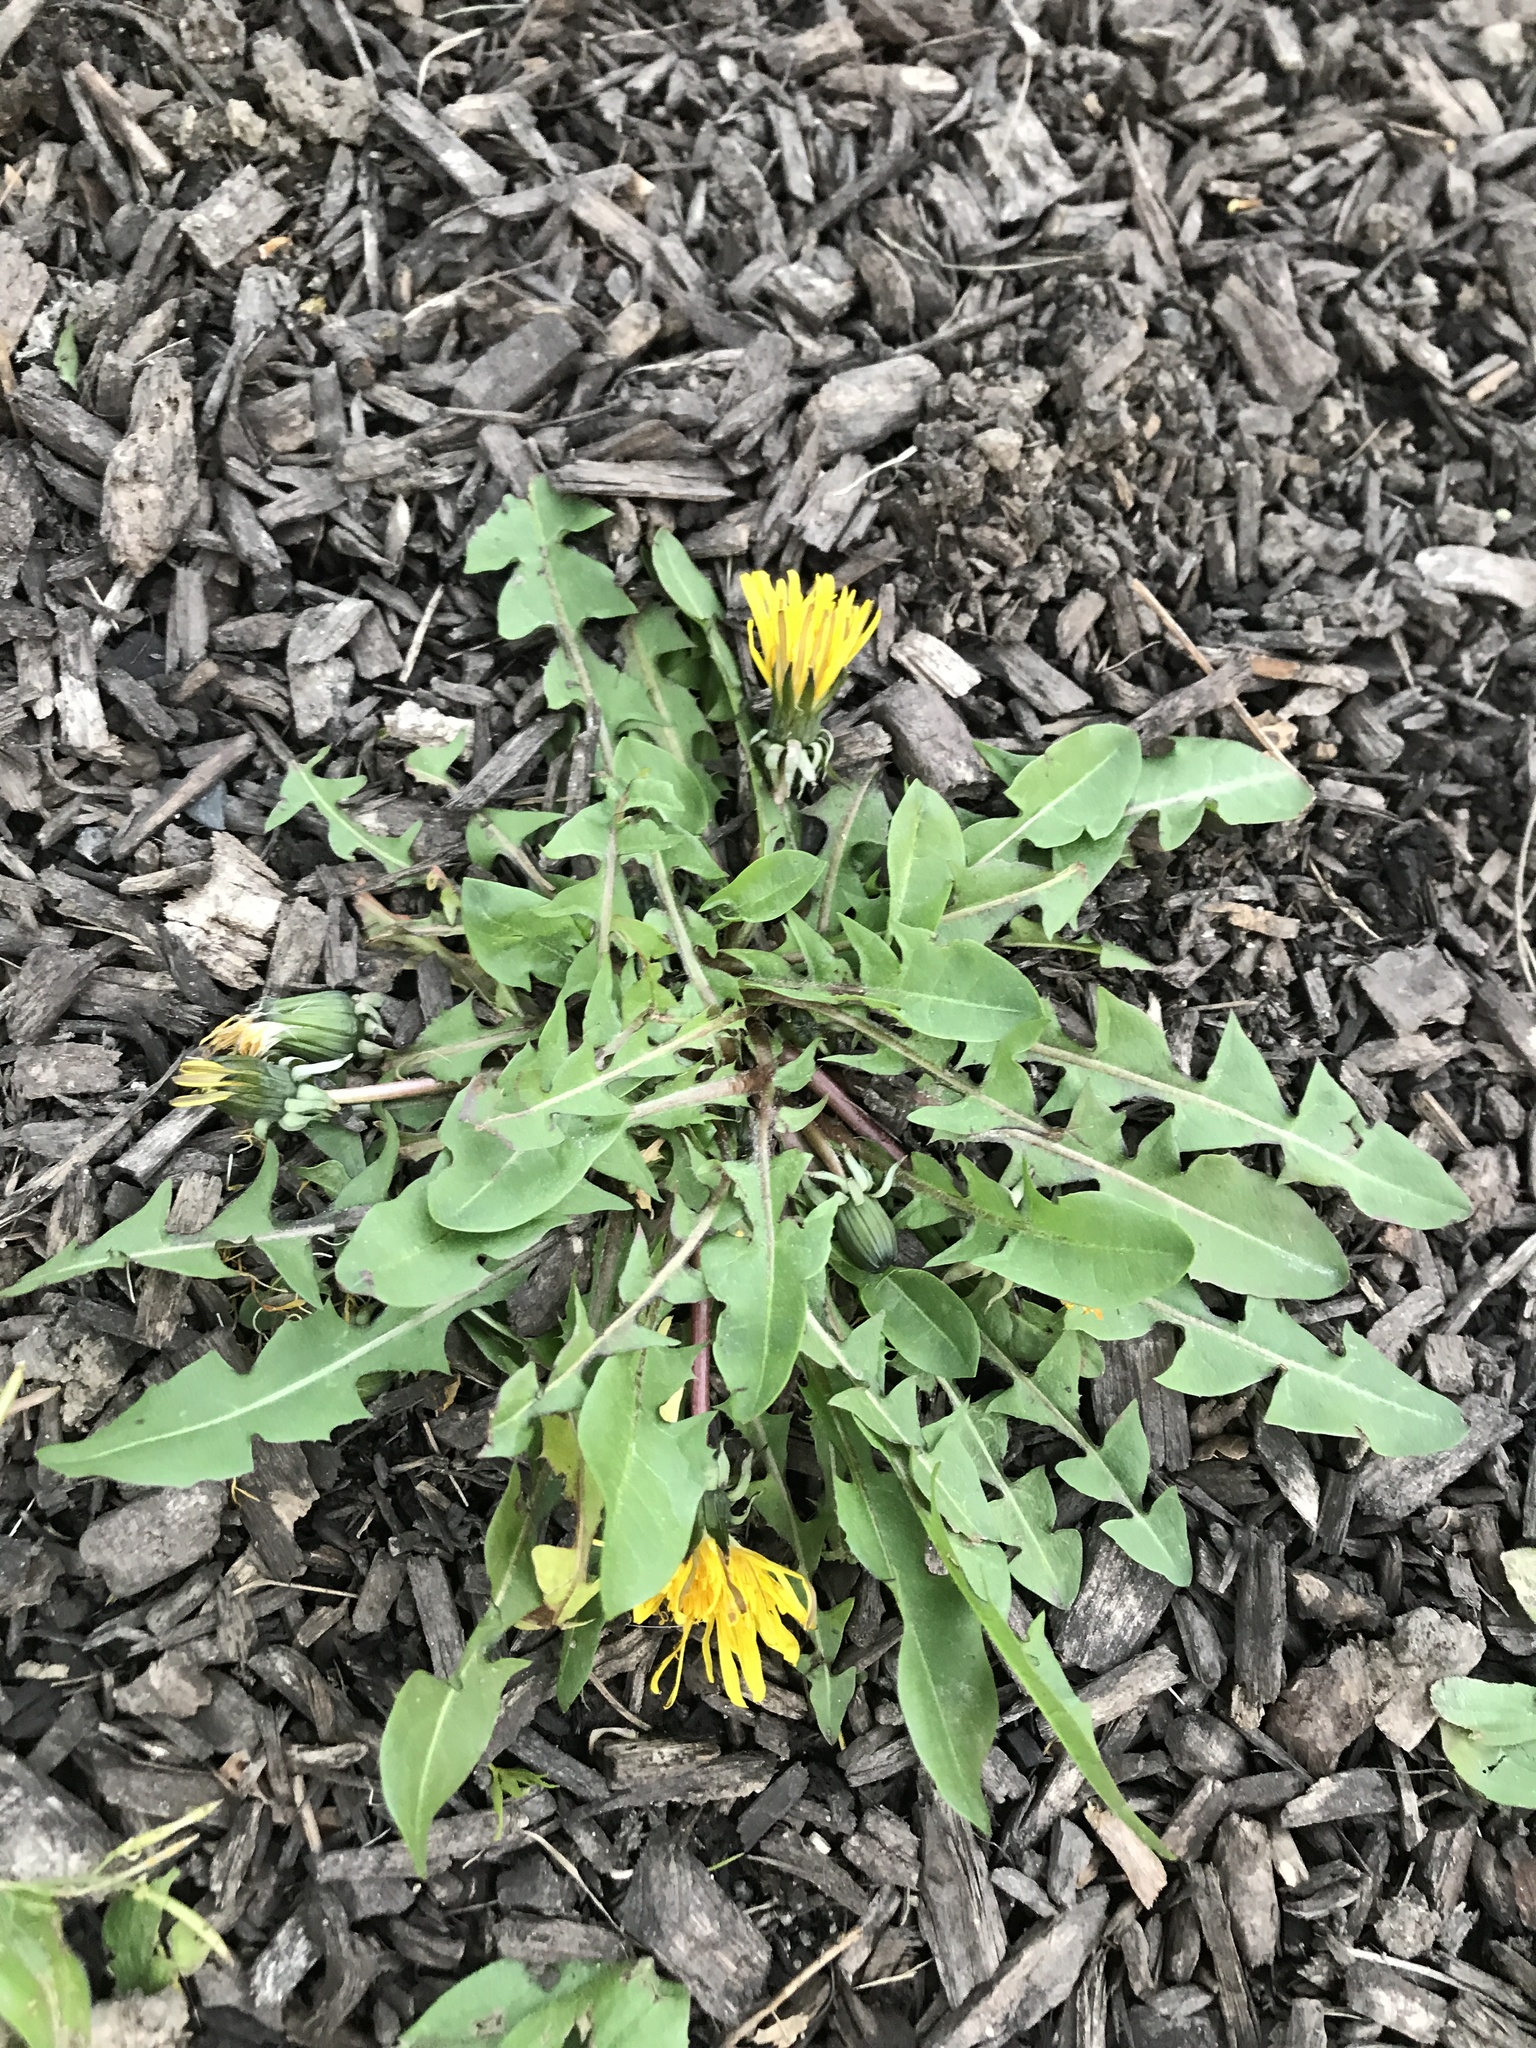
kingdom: Plantae
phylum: Tracheophyta
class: Magnoliopsida
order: Asterales
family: Asteraceae
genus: Taraxacum
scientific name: Taraxacum officinale
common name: Common dandelion
